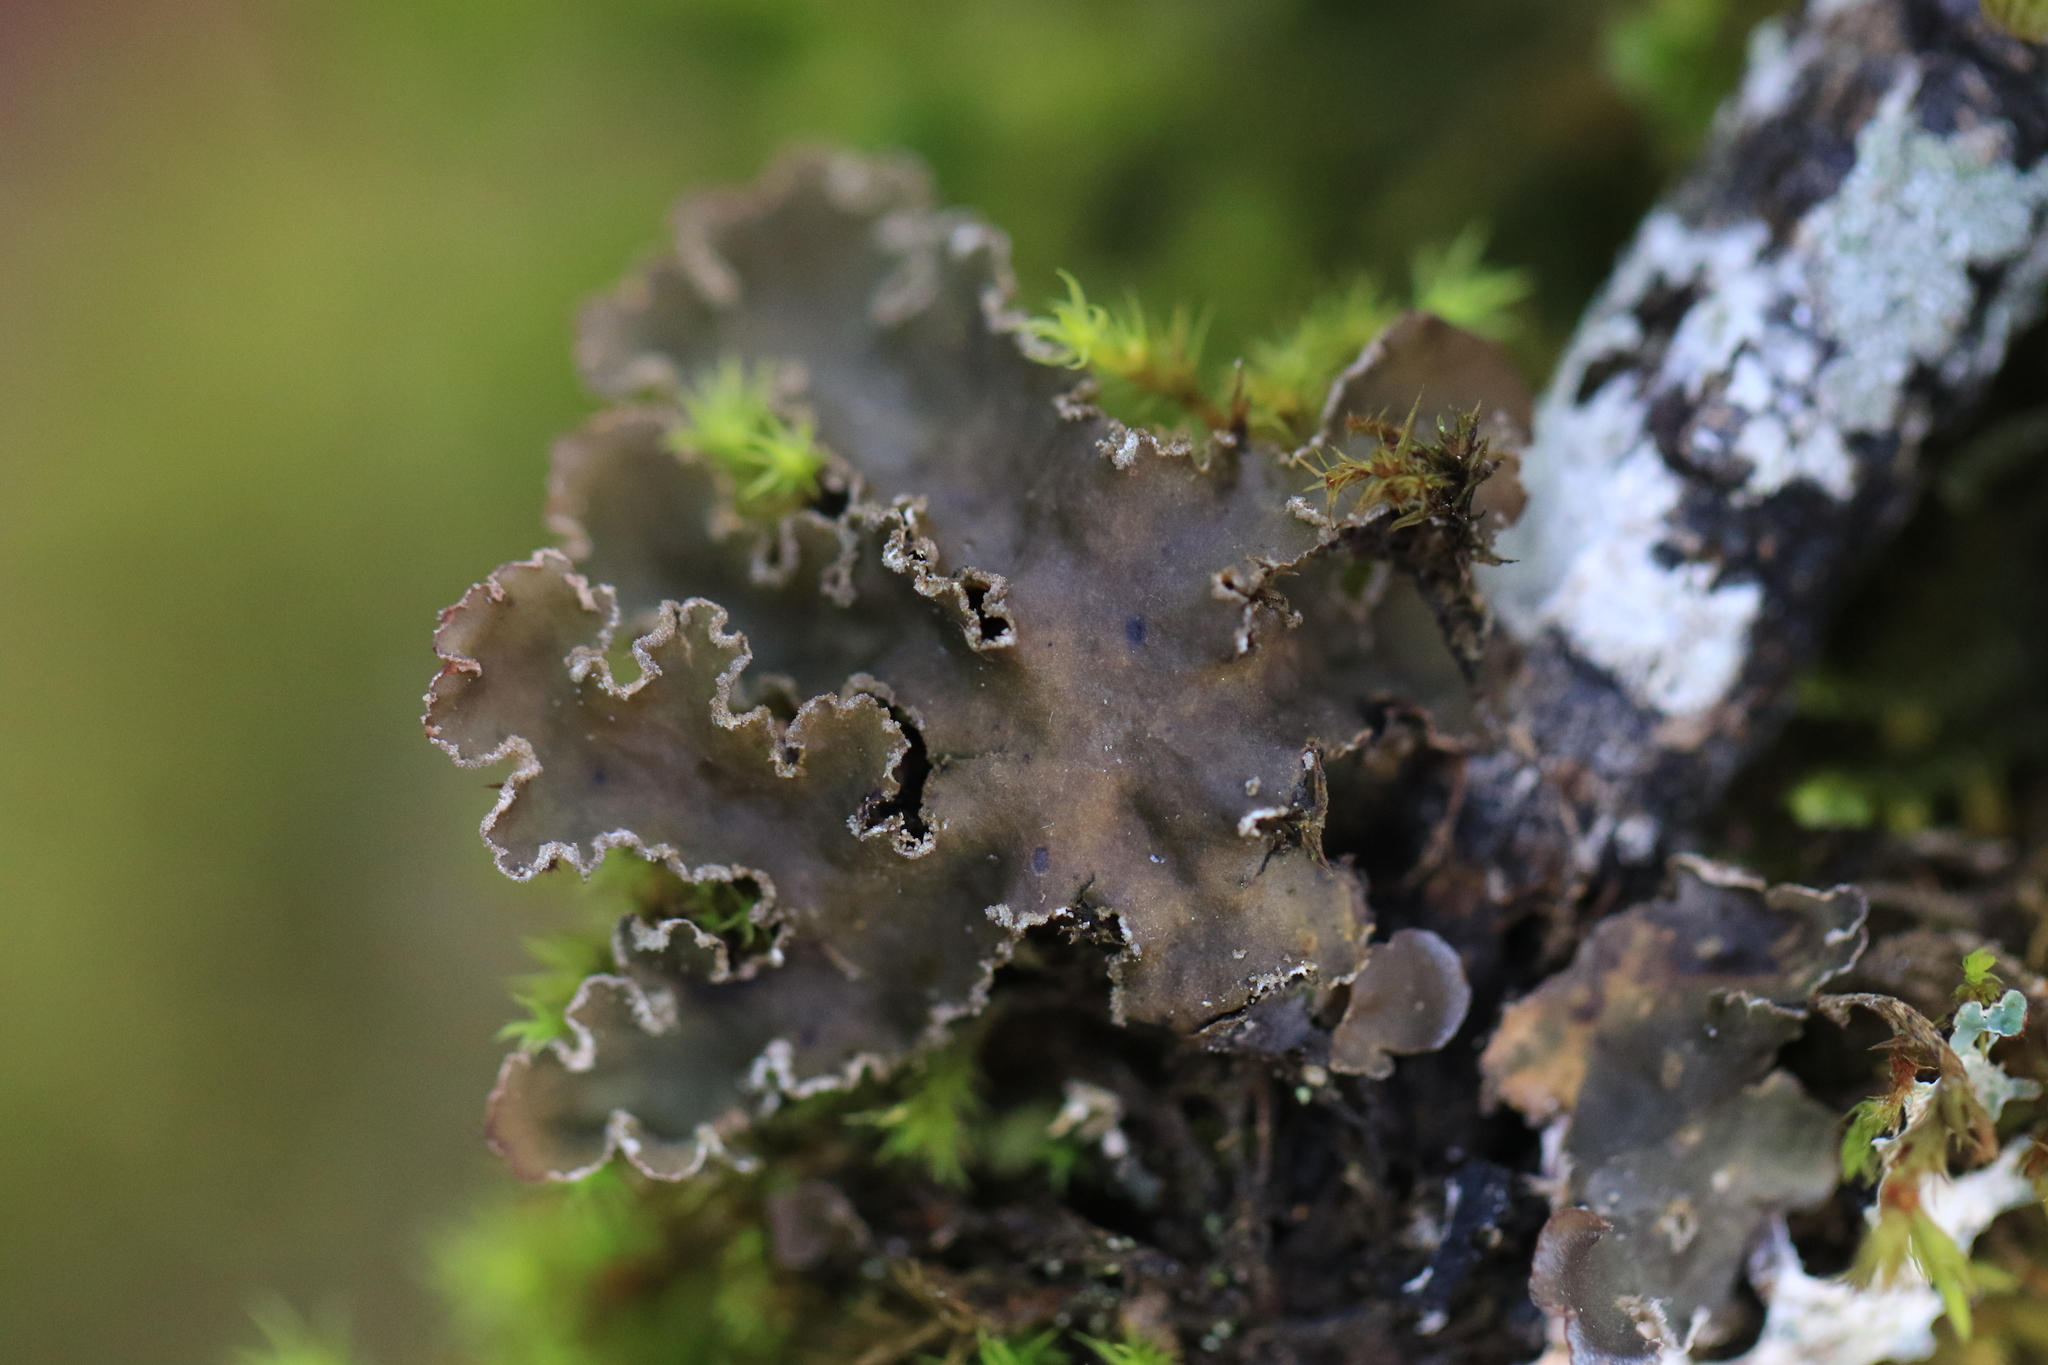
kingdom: Fungi
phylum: Ascomycota
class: Lecanoromycetes
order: Peltigerales
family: Peltigeraceae
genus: Peltigera
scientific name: Peltigera collina
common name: Gritty tree pelt lichen
